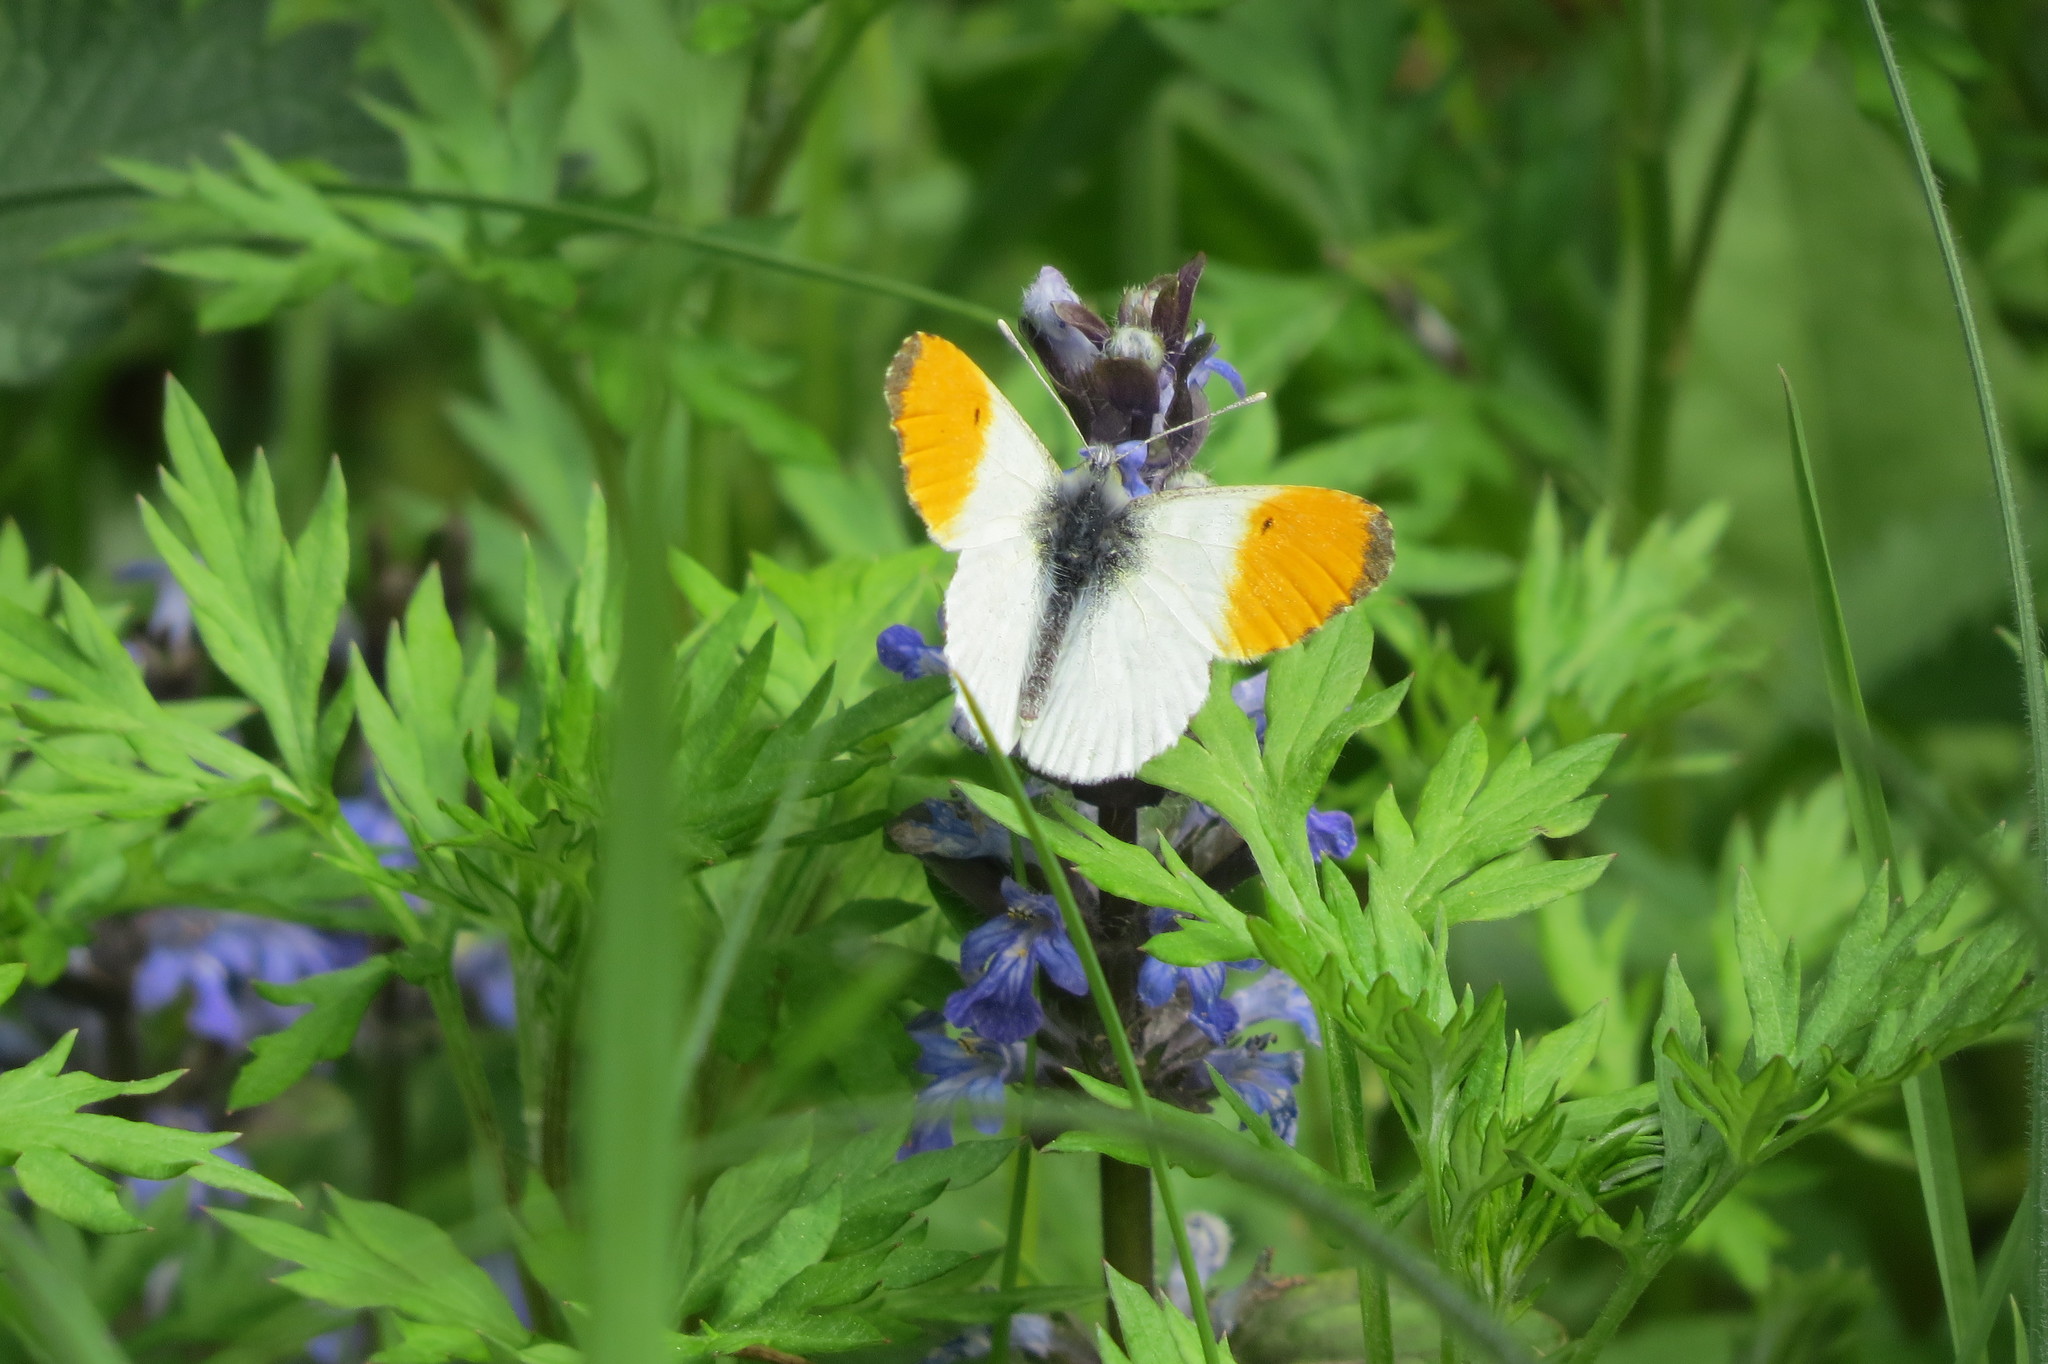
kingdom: Animalia
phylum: Arthropoda
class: Insecta
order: Lepidoptera
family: Pieridae
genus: Anthocharis
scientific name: Anthocharis cardamines
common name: Orange-tip
